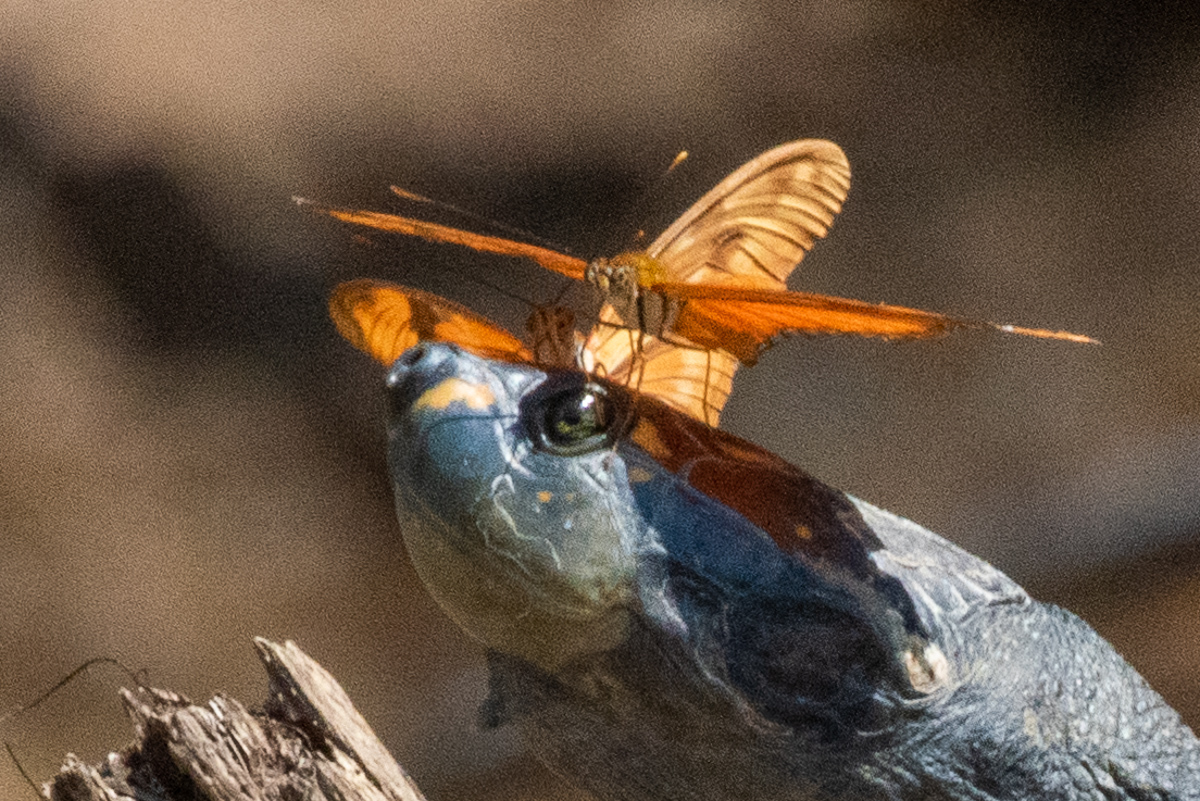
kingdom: Animalia
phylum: Arthropoda
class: Insecta
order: Lepidoptera
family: Nymphalidae
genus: Dryas
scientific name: Dryas iulia
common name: Flambeau
